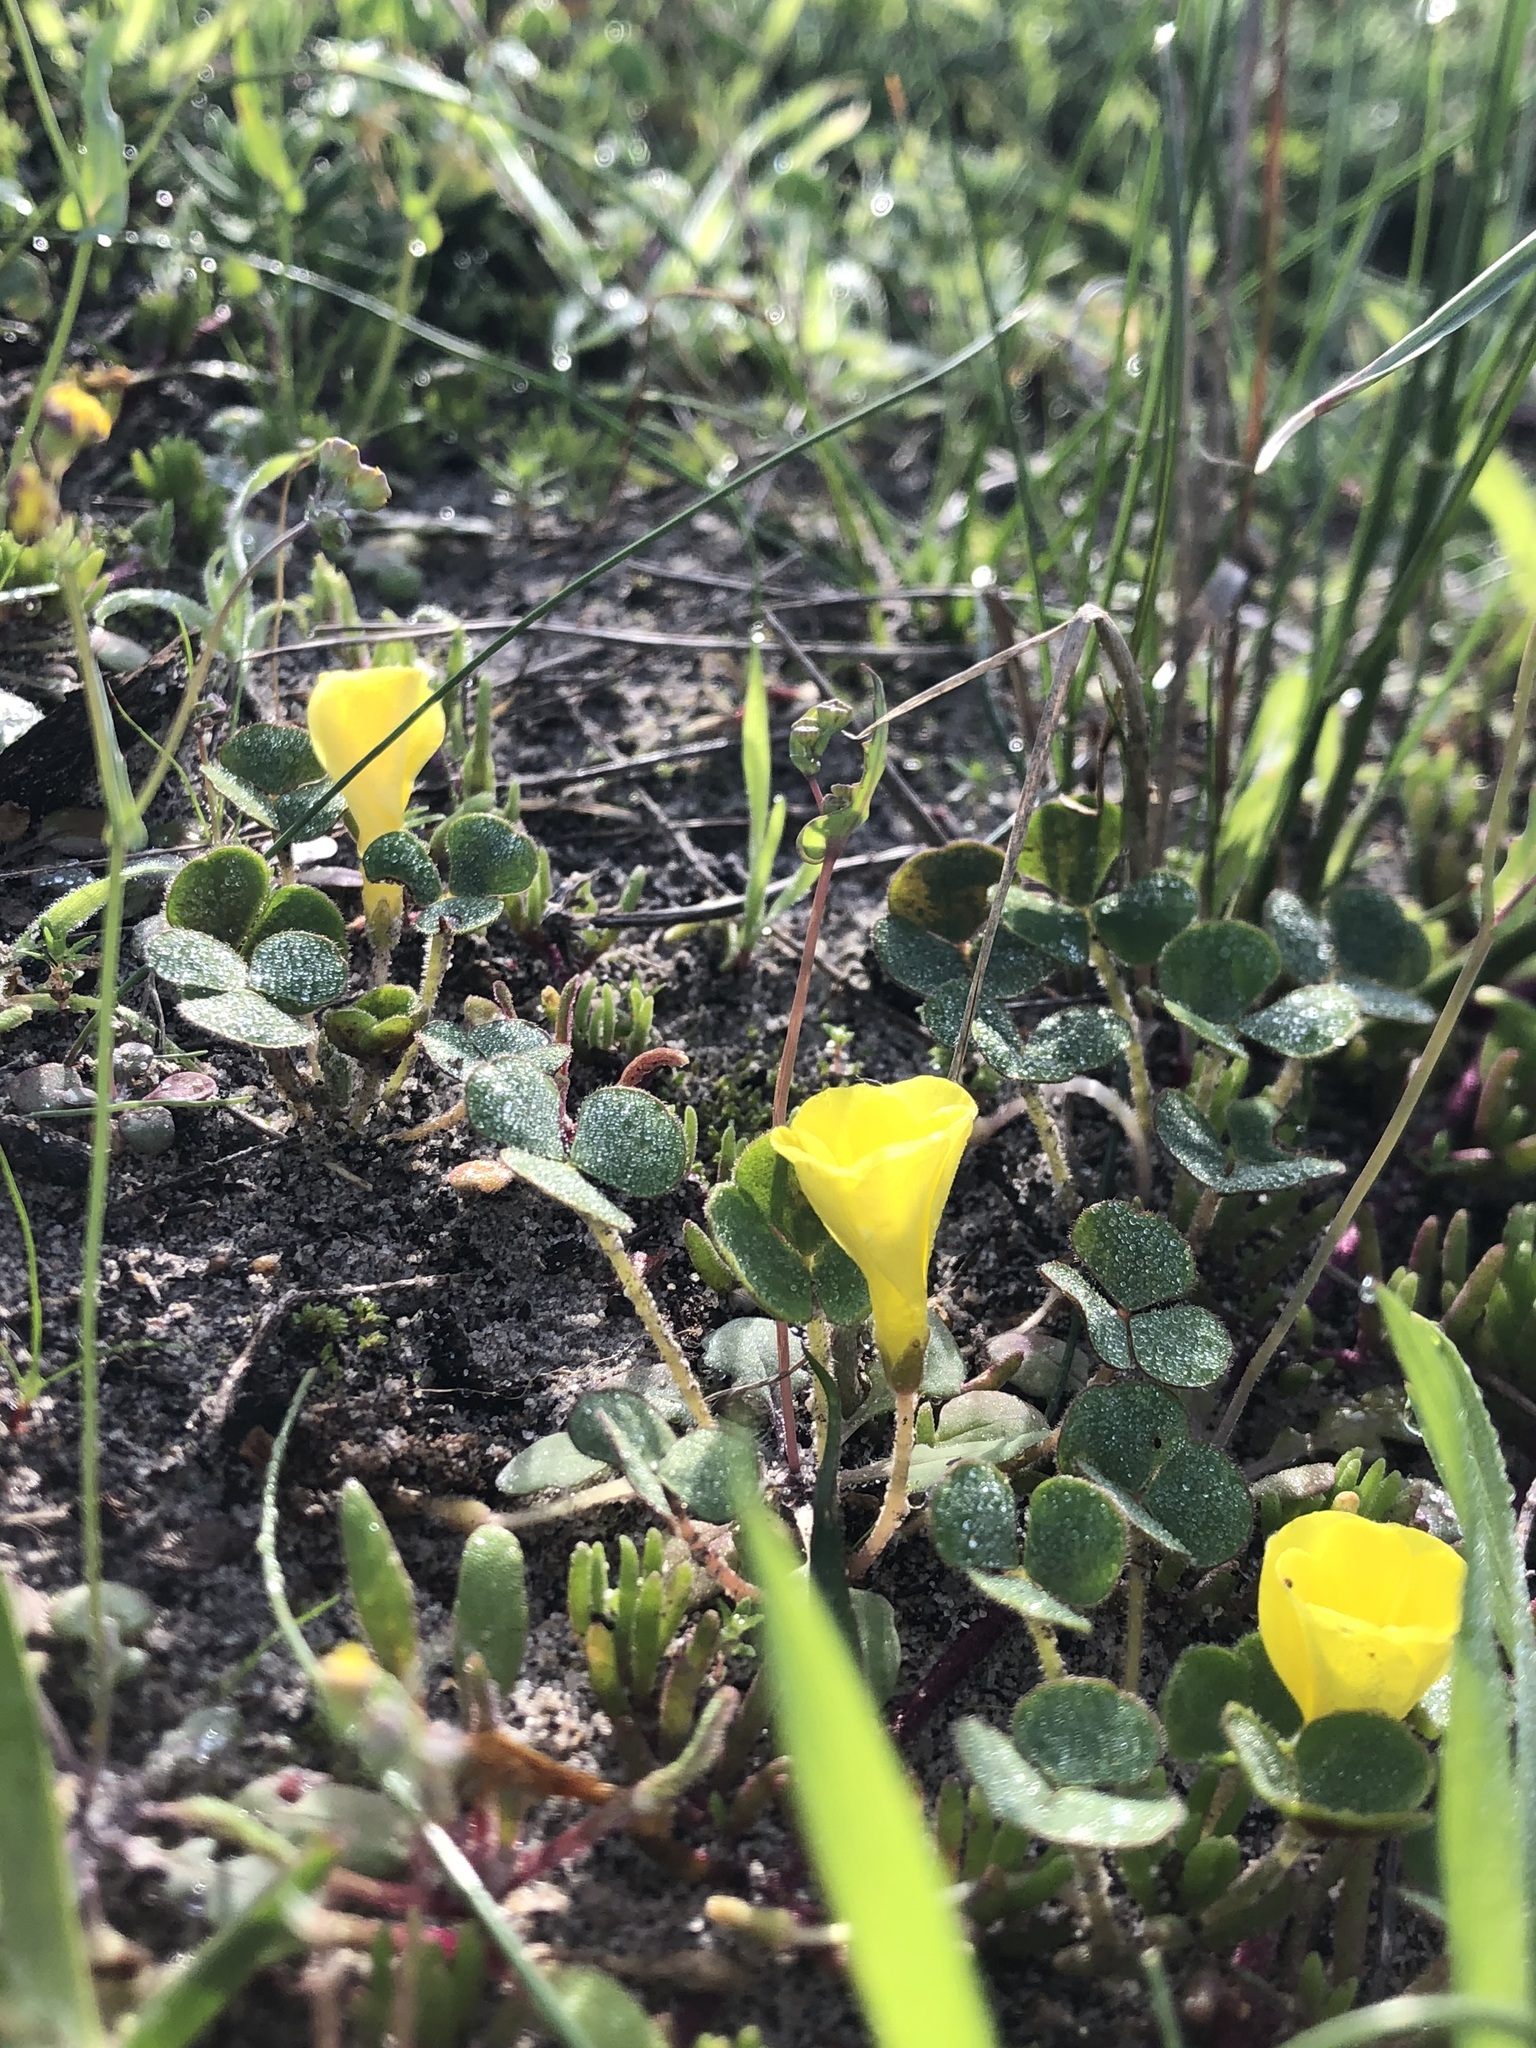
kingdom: Plantae
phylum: Tracheophyta
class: Magnoliopsida
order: Oxalidales
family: Oxalidaceae
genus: Oxalis
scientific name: Oxalis luteola
